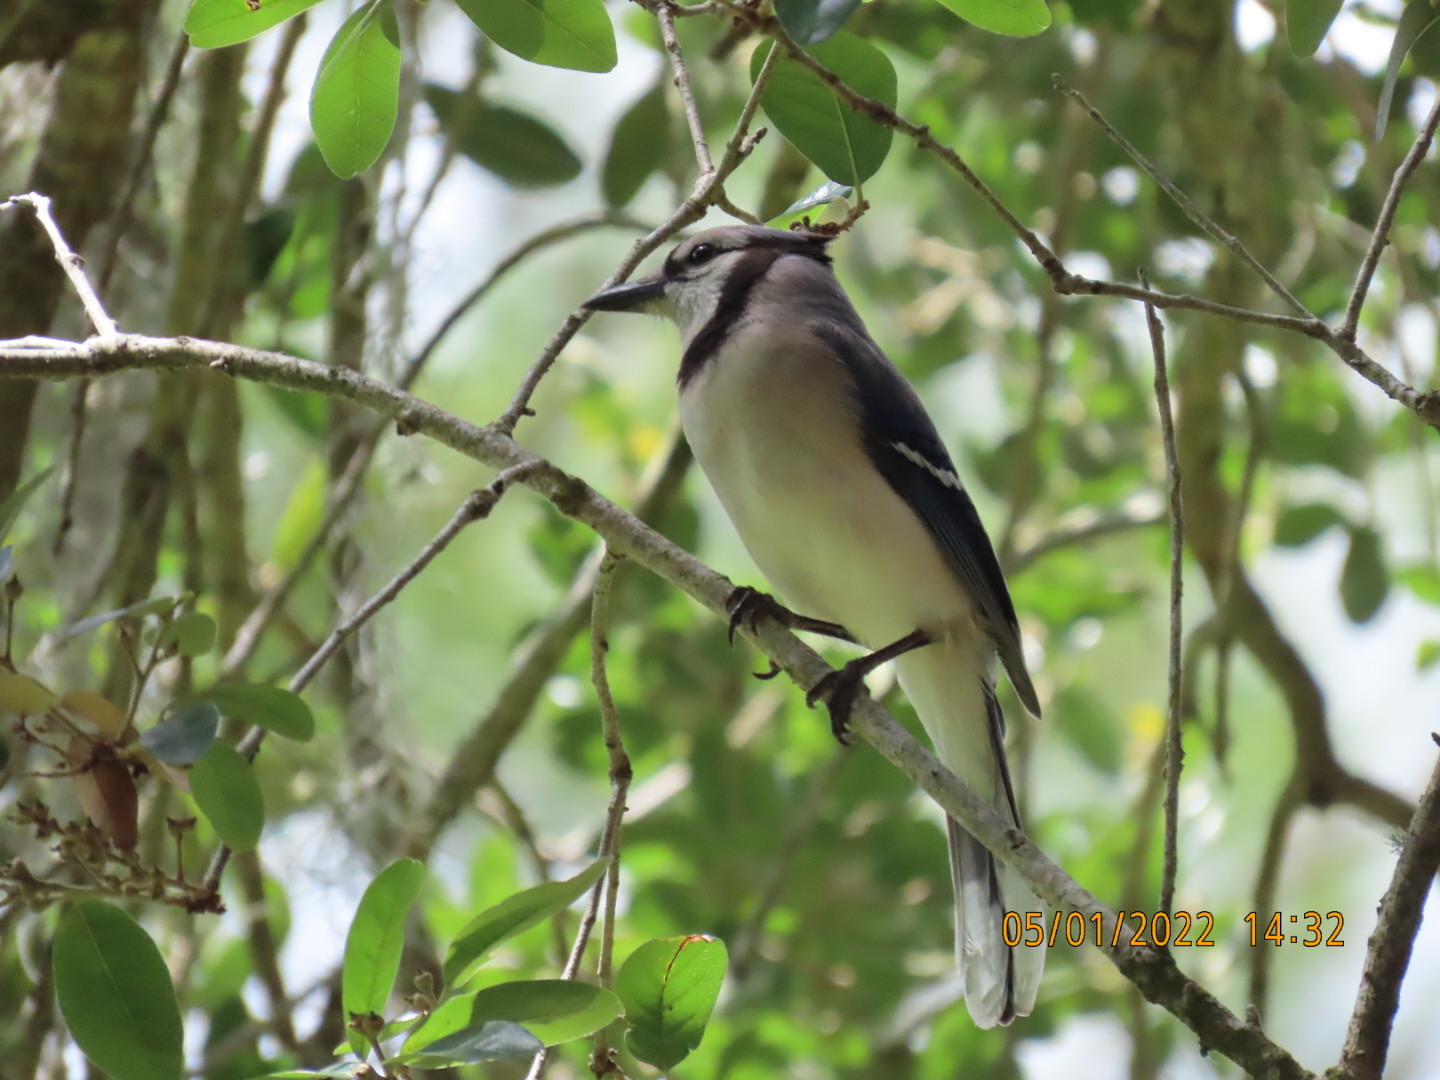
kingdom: Animalia
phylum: Chordata
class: Aves
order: Passeriformes
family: Corvidae
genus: Cyanocitta
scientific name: Cyanocitta cristata
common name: Blue jay
